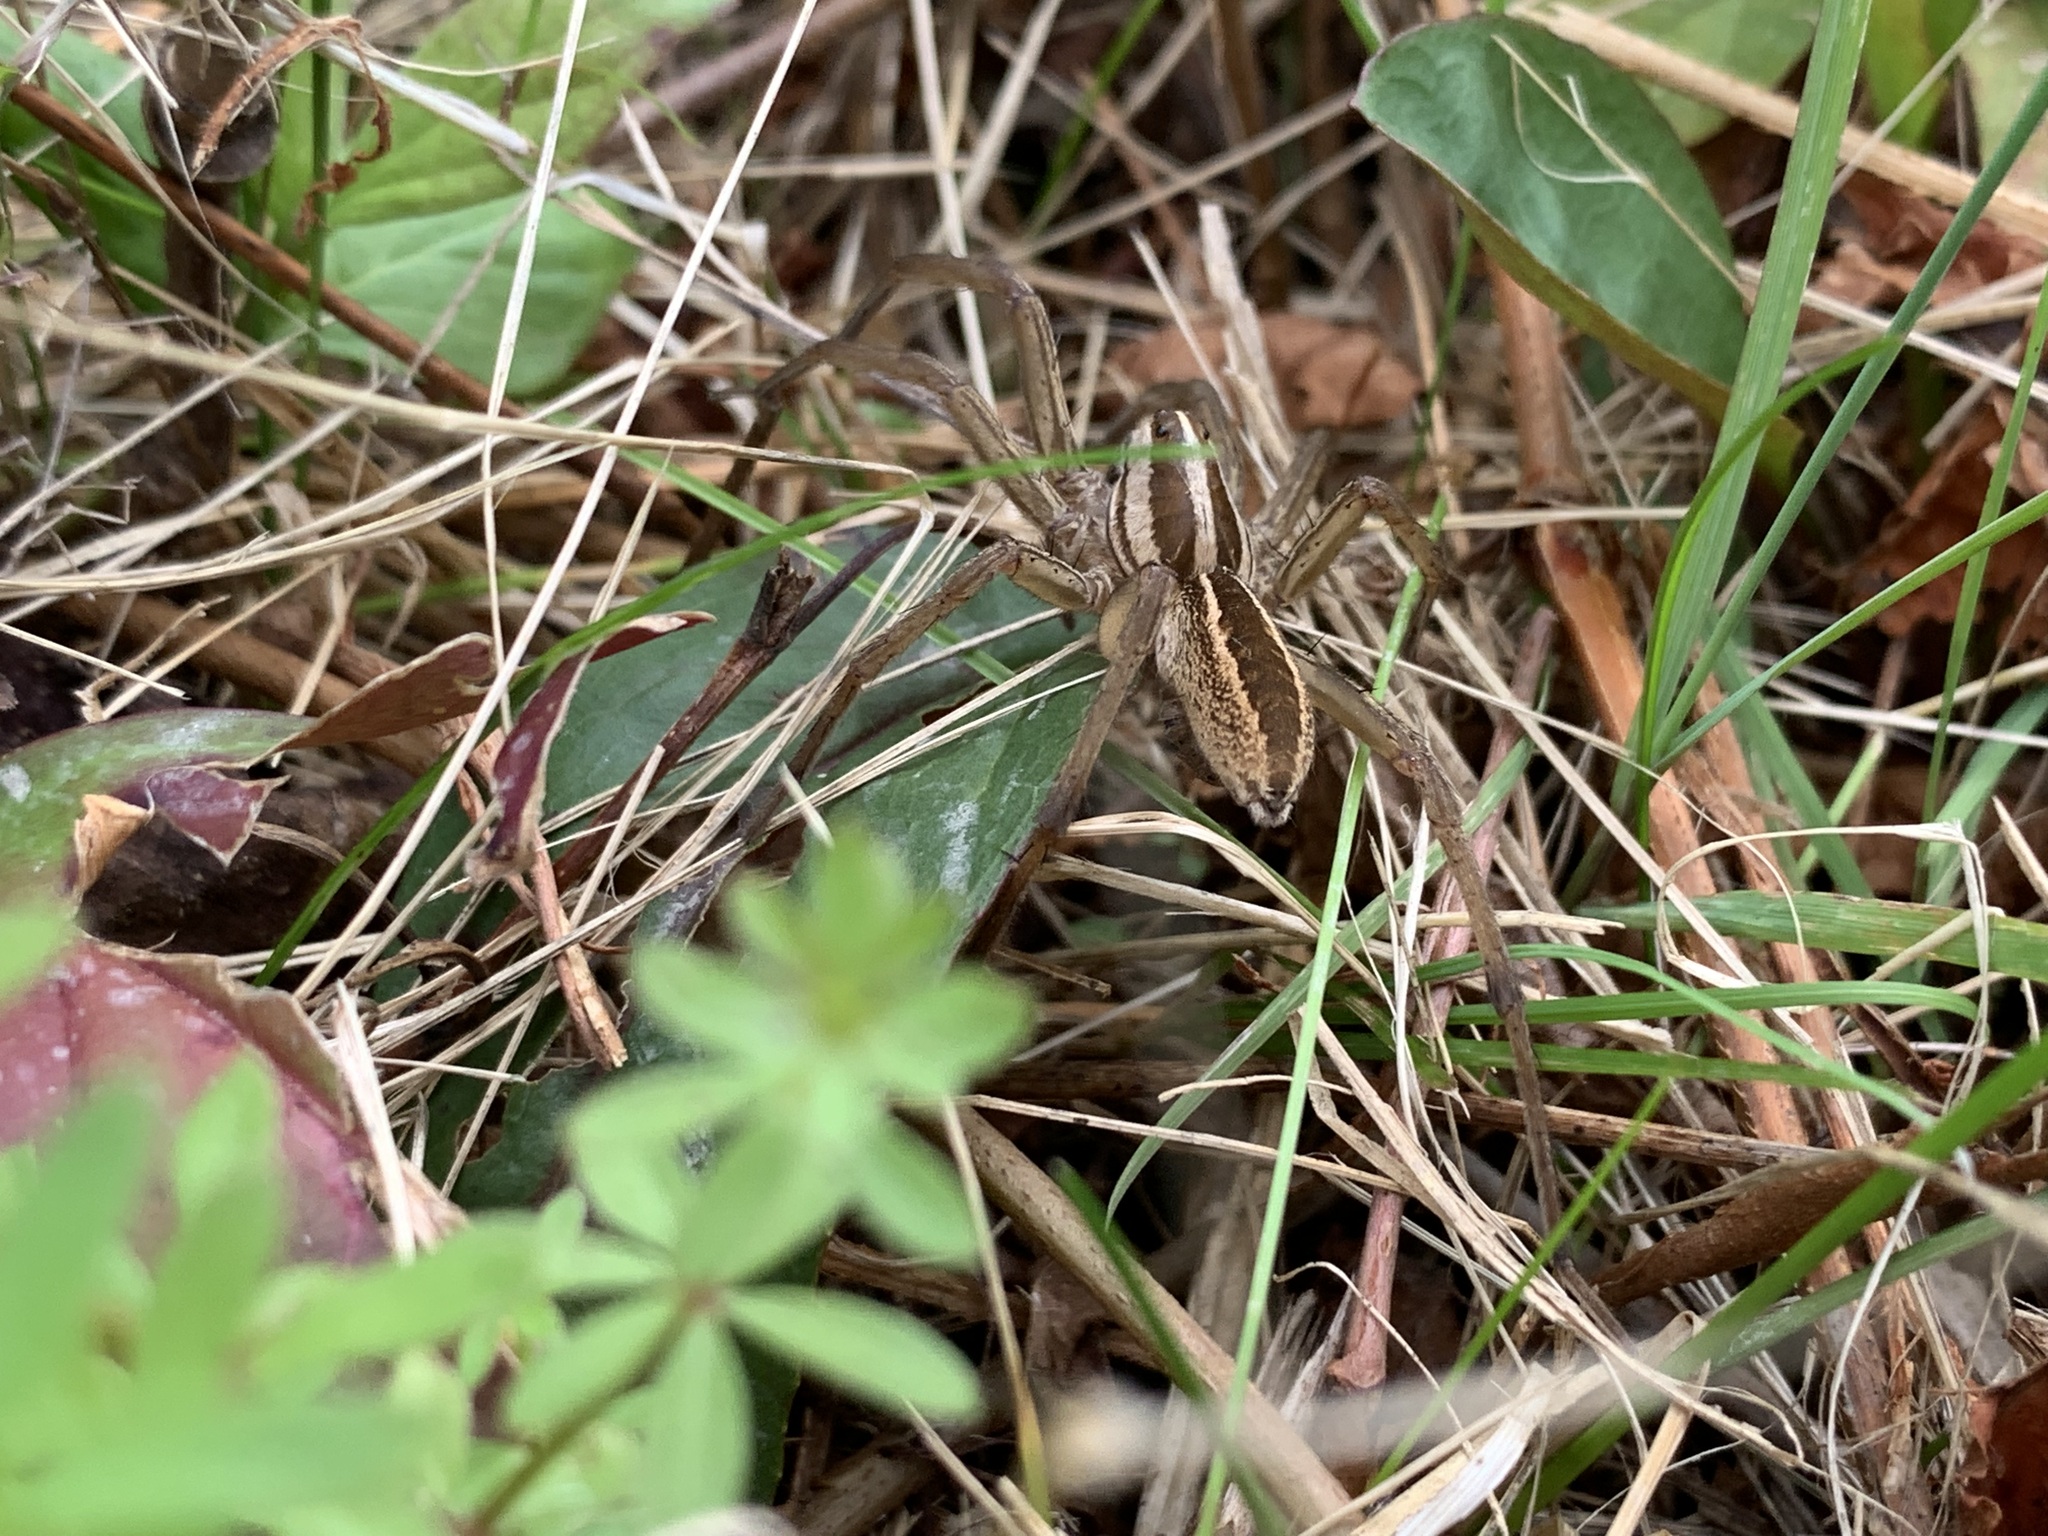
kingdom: Animalia
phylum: Arthropoda
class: Arachnida
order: Araneae
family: Lycosidae
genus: Rabidosa
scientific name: Rabidosa rabida
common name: Rabid wolf spider
